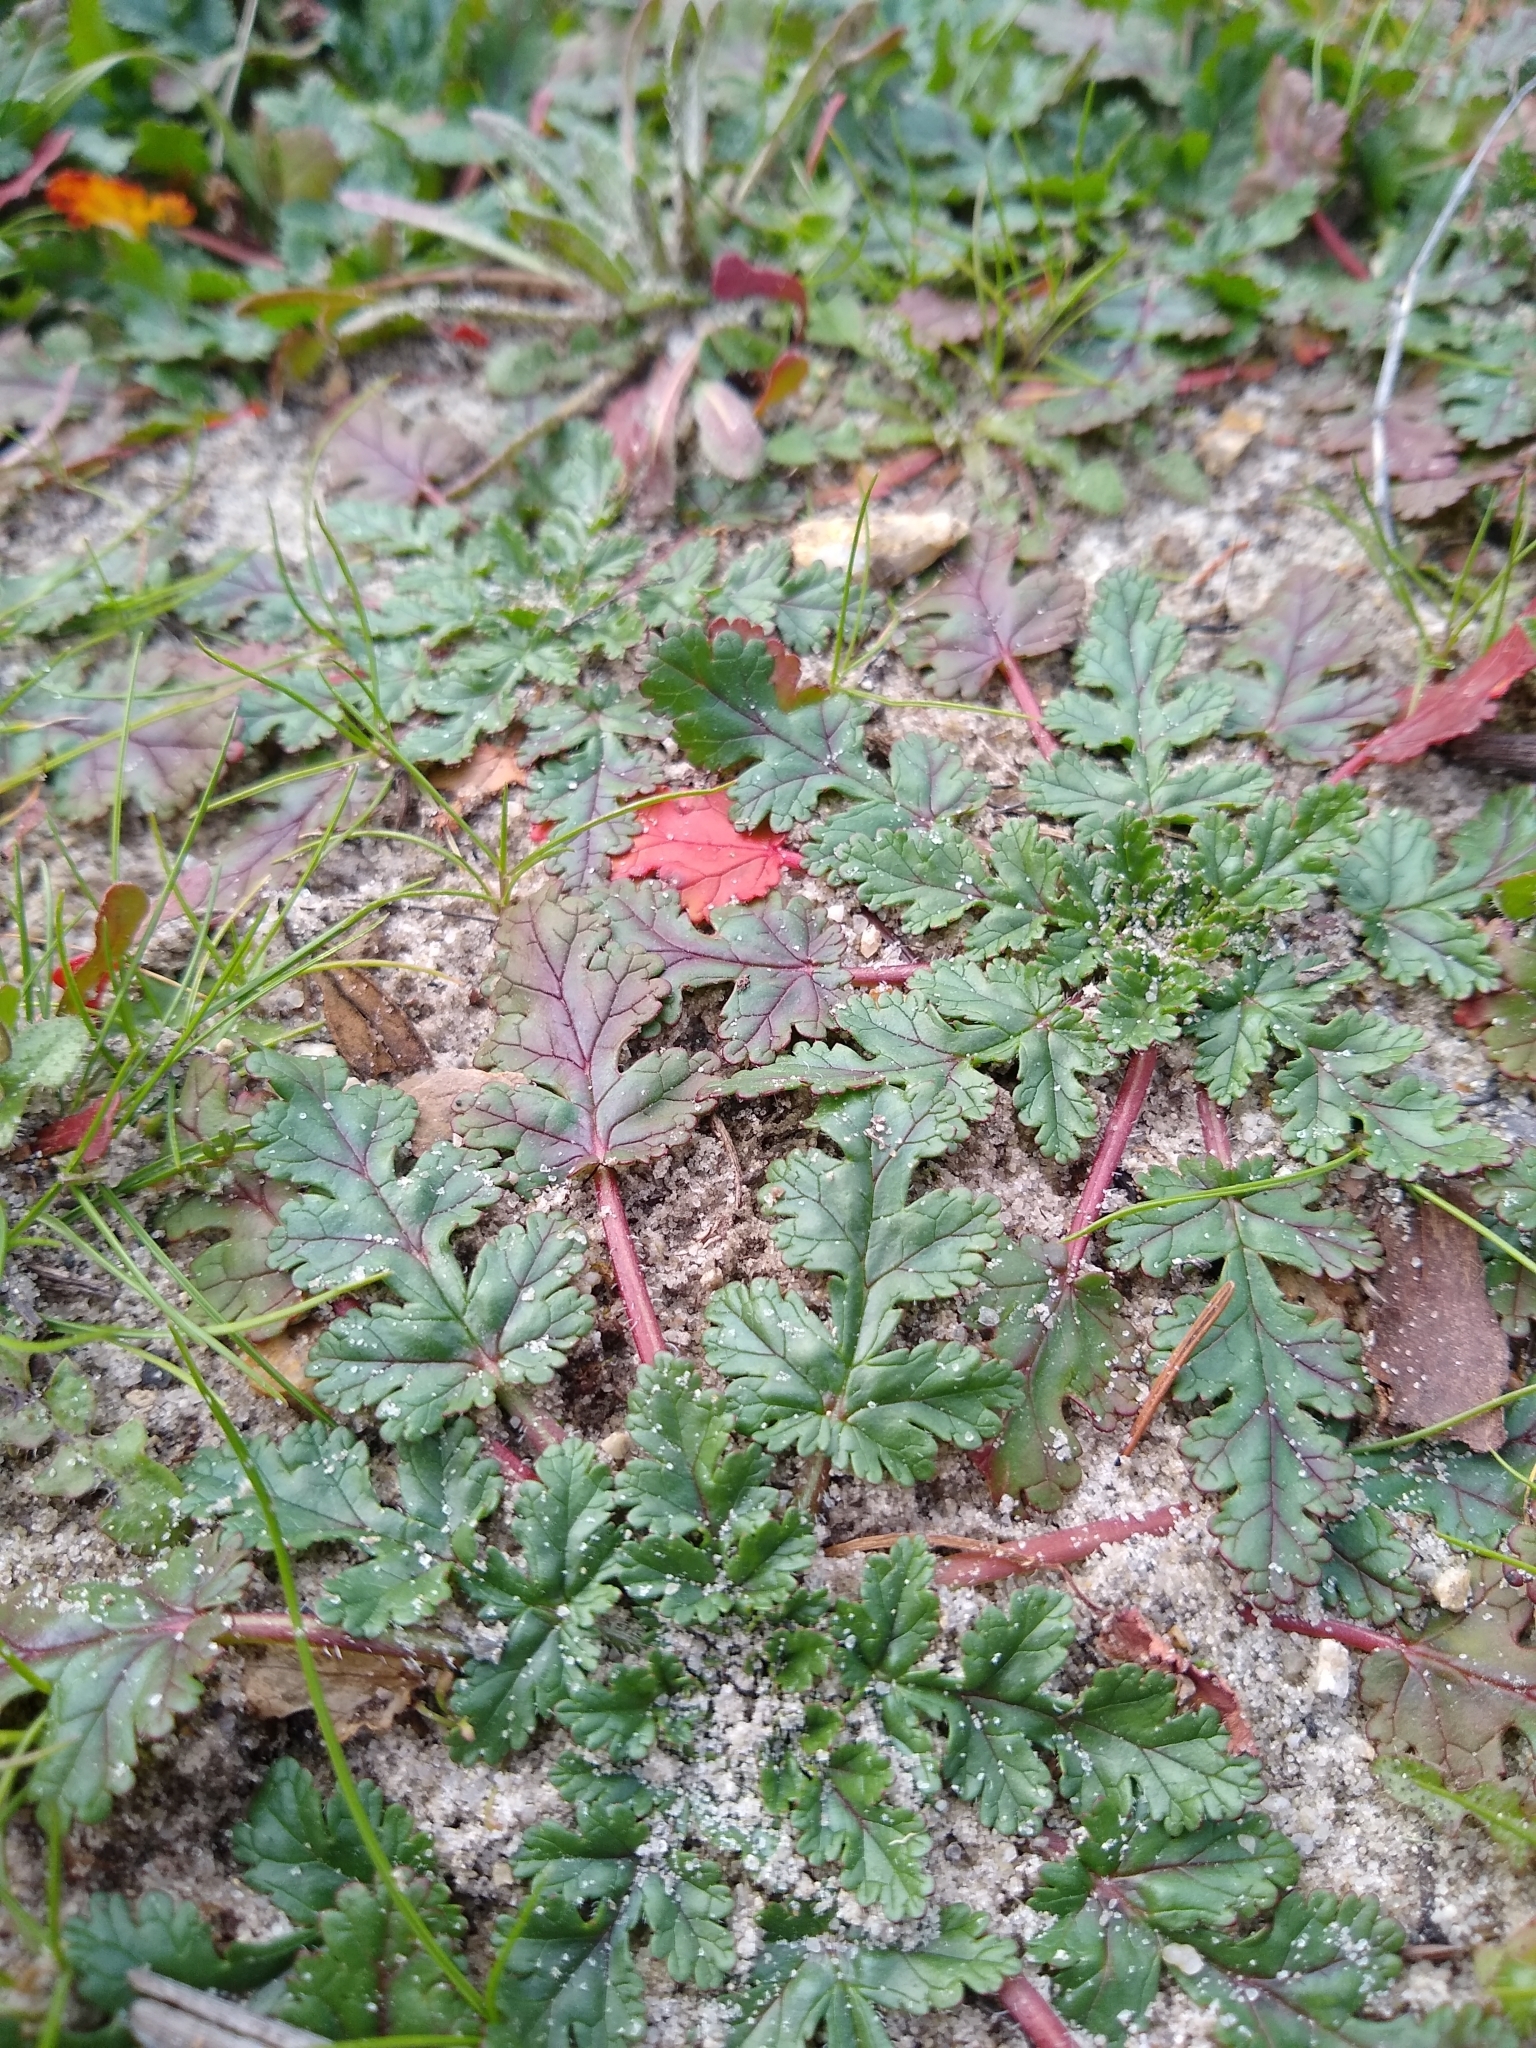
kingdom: Plantae
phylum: Tracheophyta
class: Magnoliopsida
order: Geraniales
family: Geraniaceae
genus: Erodium
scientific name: Erodium
